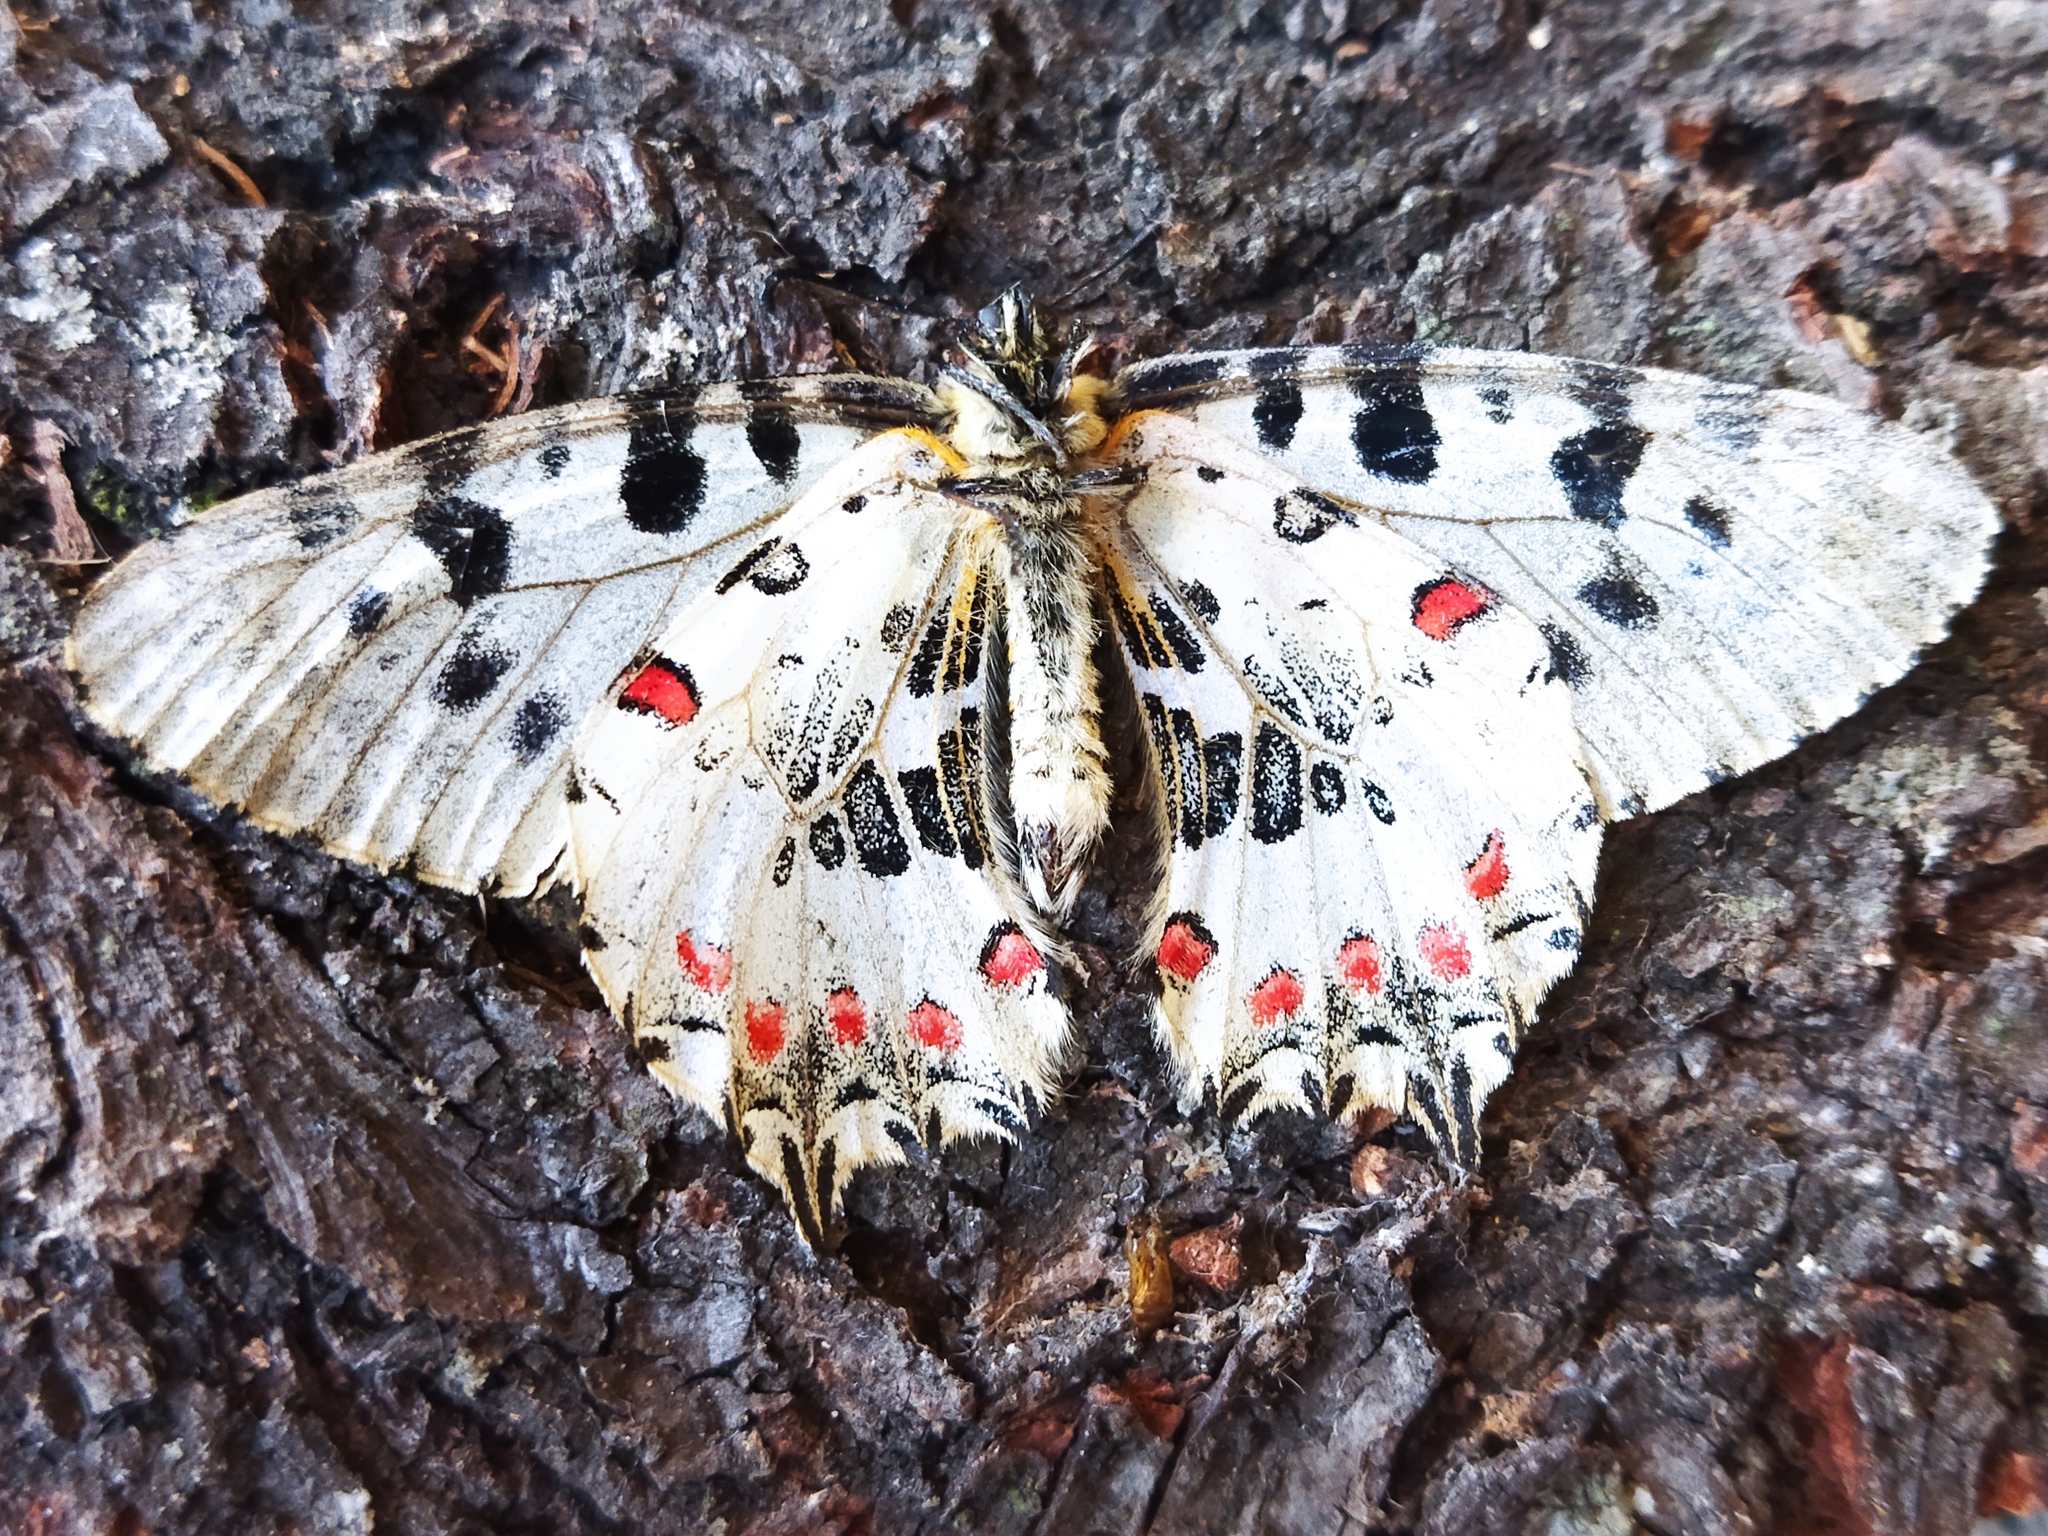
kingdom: Animalia
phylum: Arthropoda
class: Insecta
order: Lepidoptera
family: Papilionidae
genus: Zerynthia
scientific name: Zerynthia cerisy
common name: Eastern festoon
